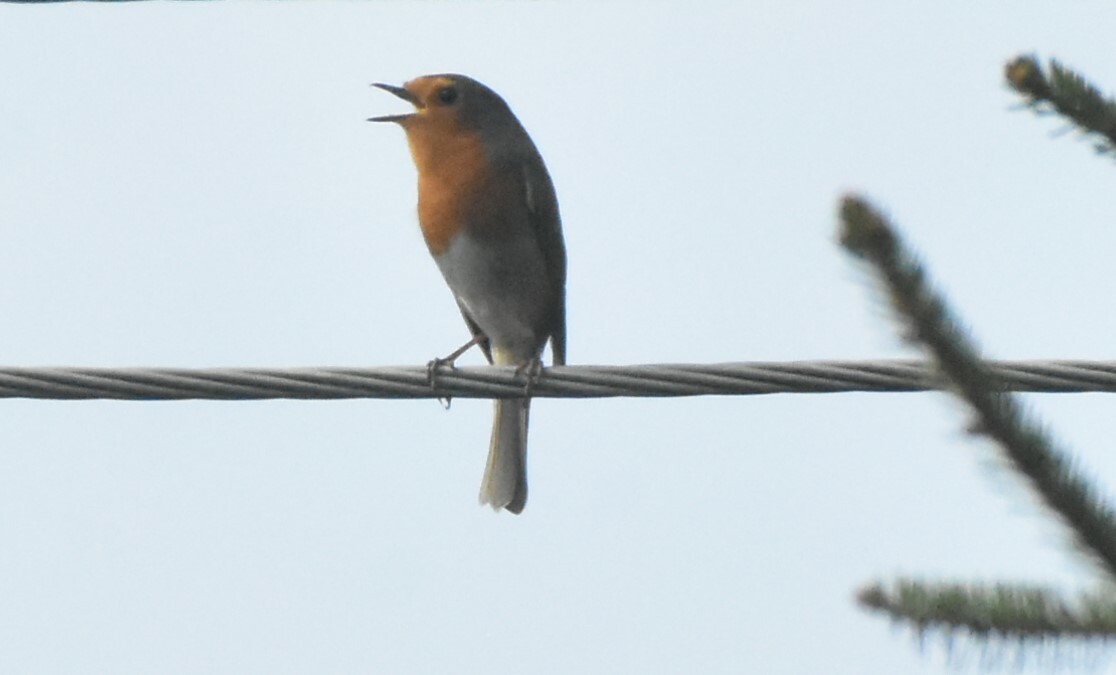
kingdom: Animalia
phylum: Chordata
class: Aves
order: Passeriformes
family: Muscicapidae
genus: Erithacus
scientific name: Erithacus rubecula
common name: European robin
